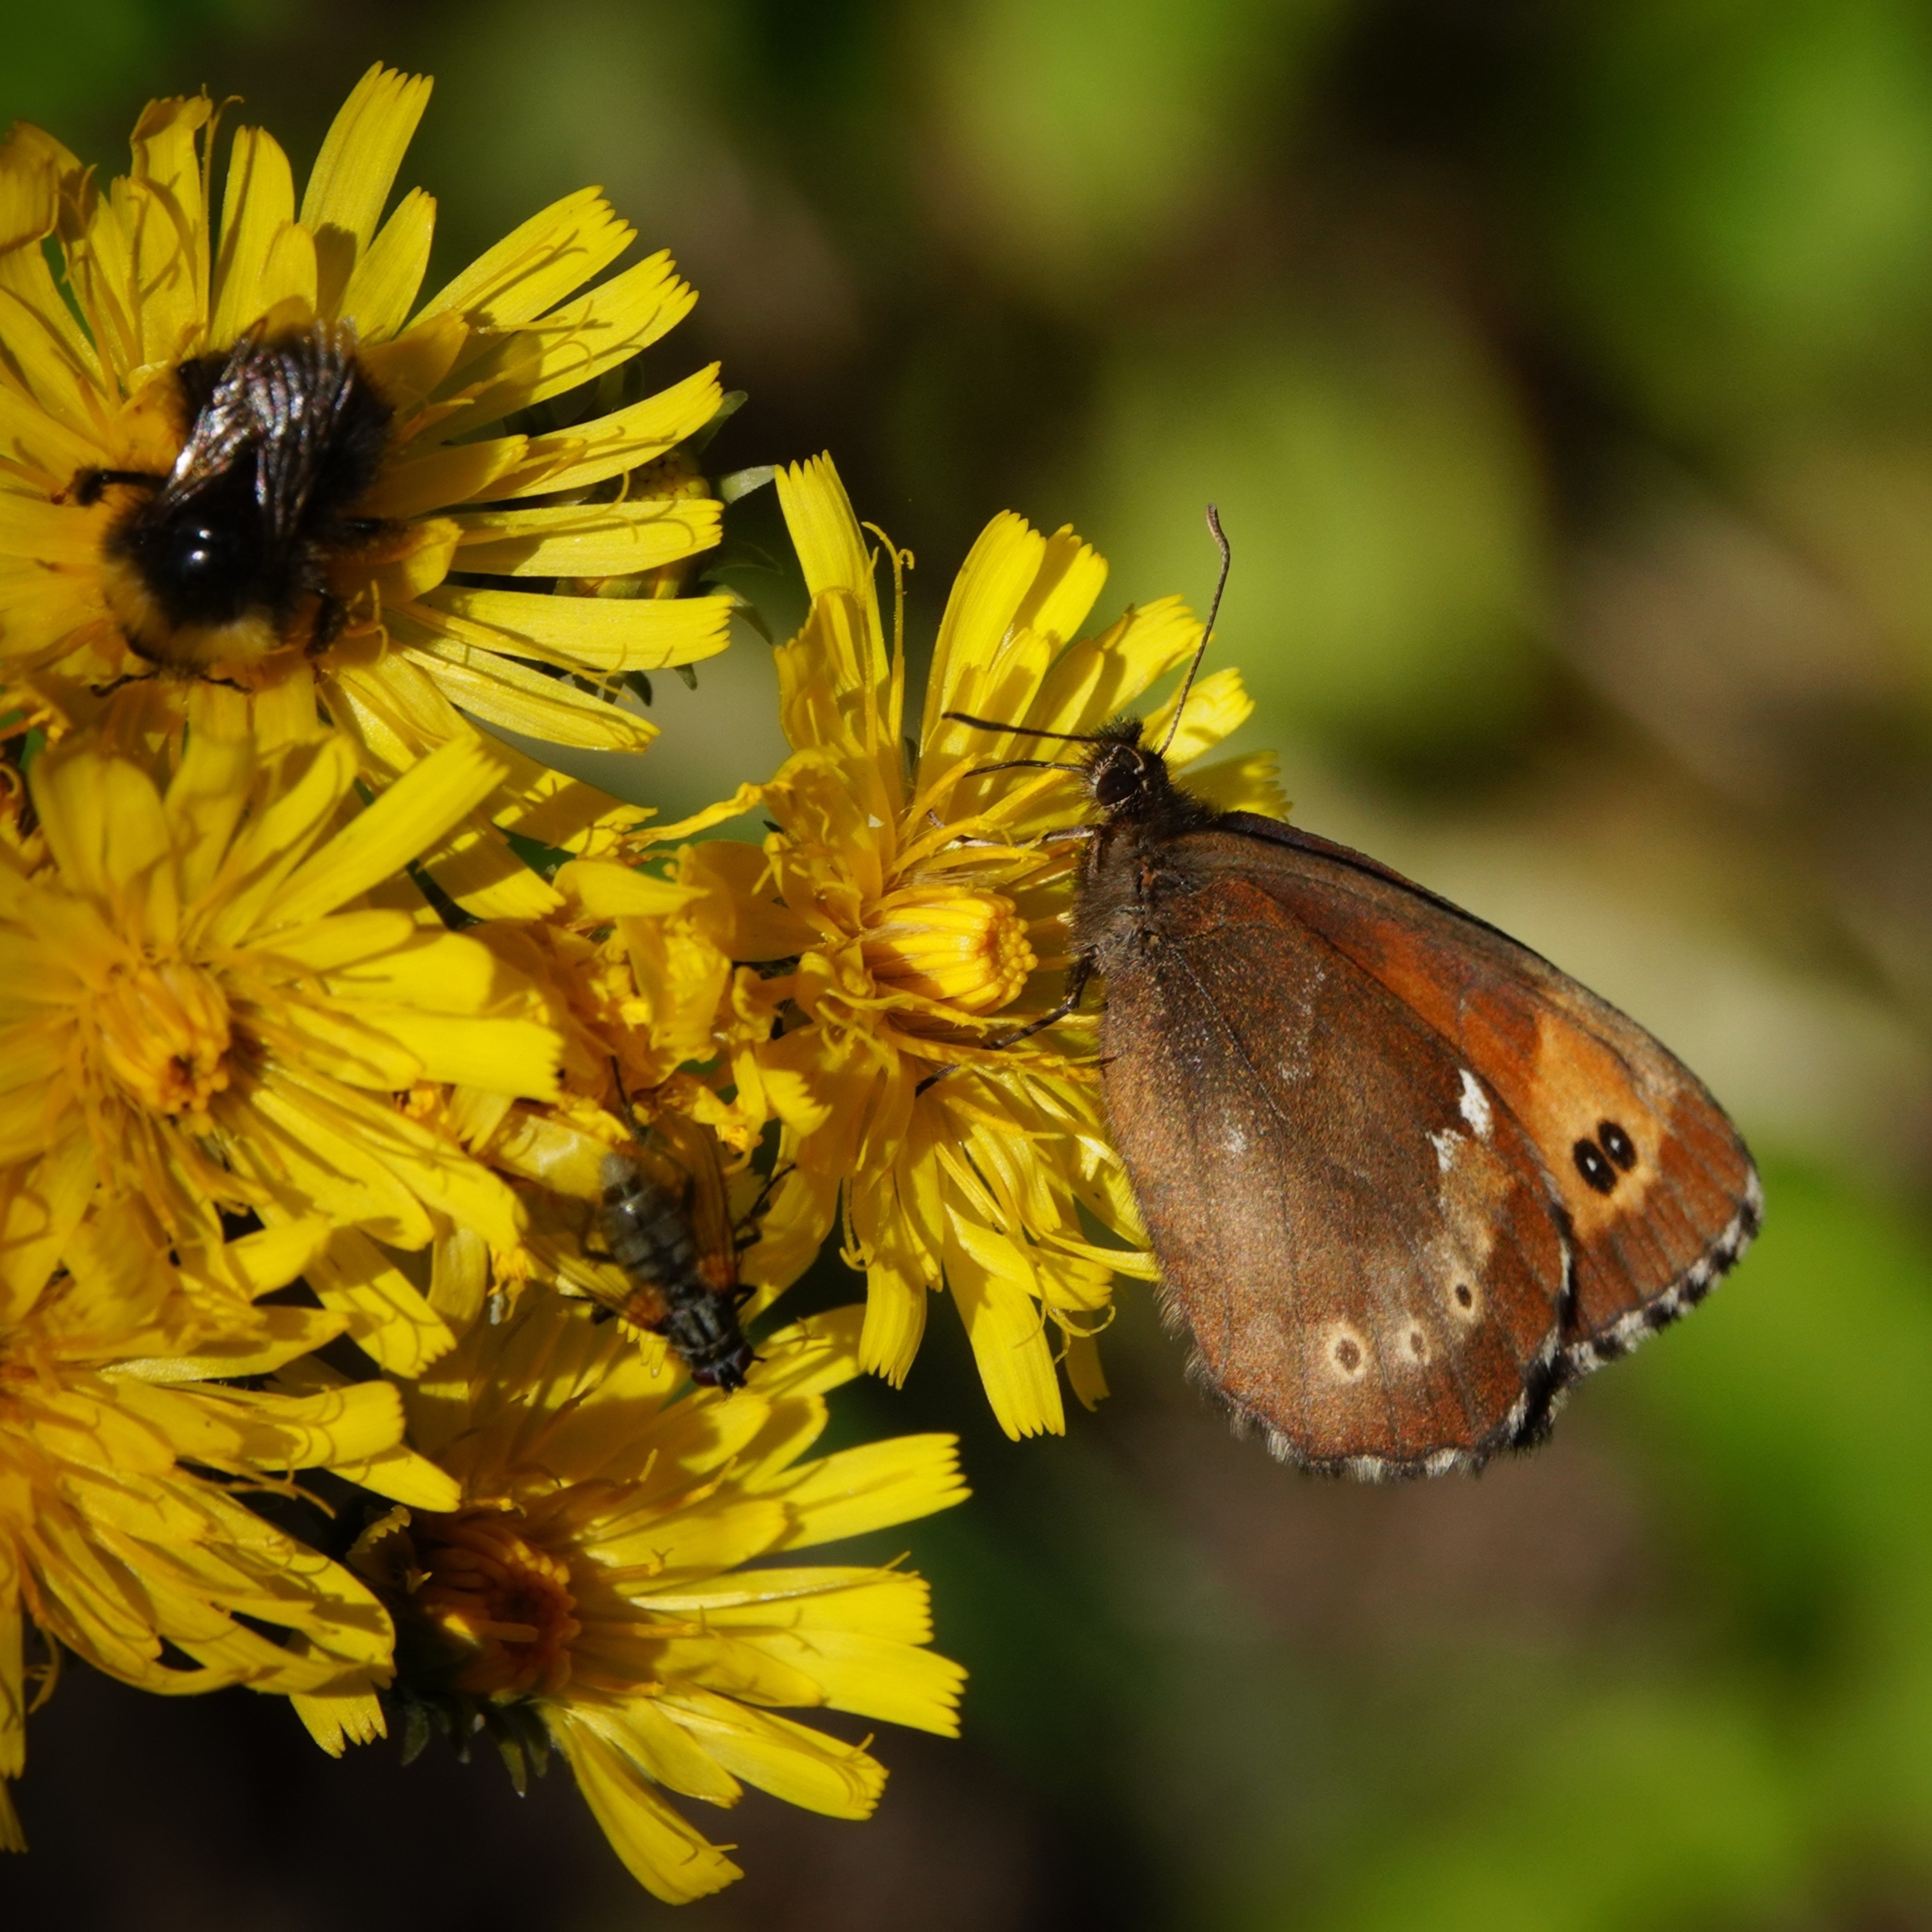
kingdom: Animalia
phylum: Arthropoda
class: Insecta
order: Lepidoptera
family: Nymphalidae
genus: Erebia
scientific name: Erebia ligea
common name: Arran brown
